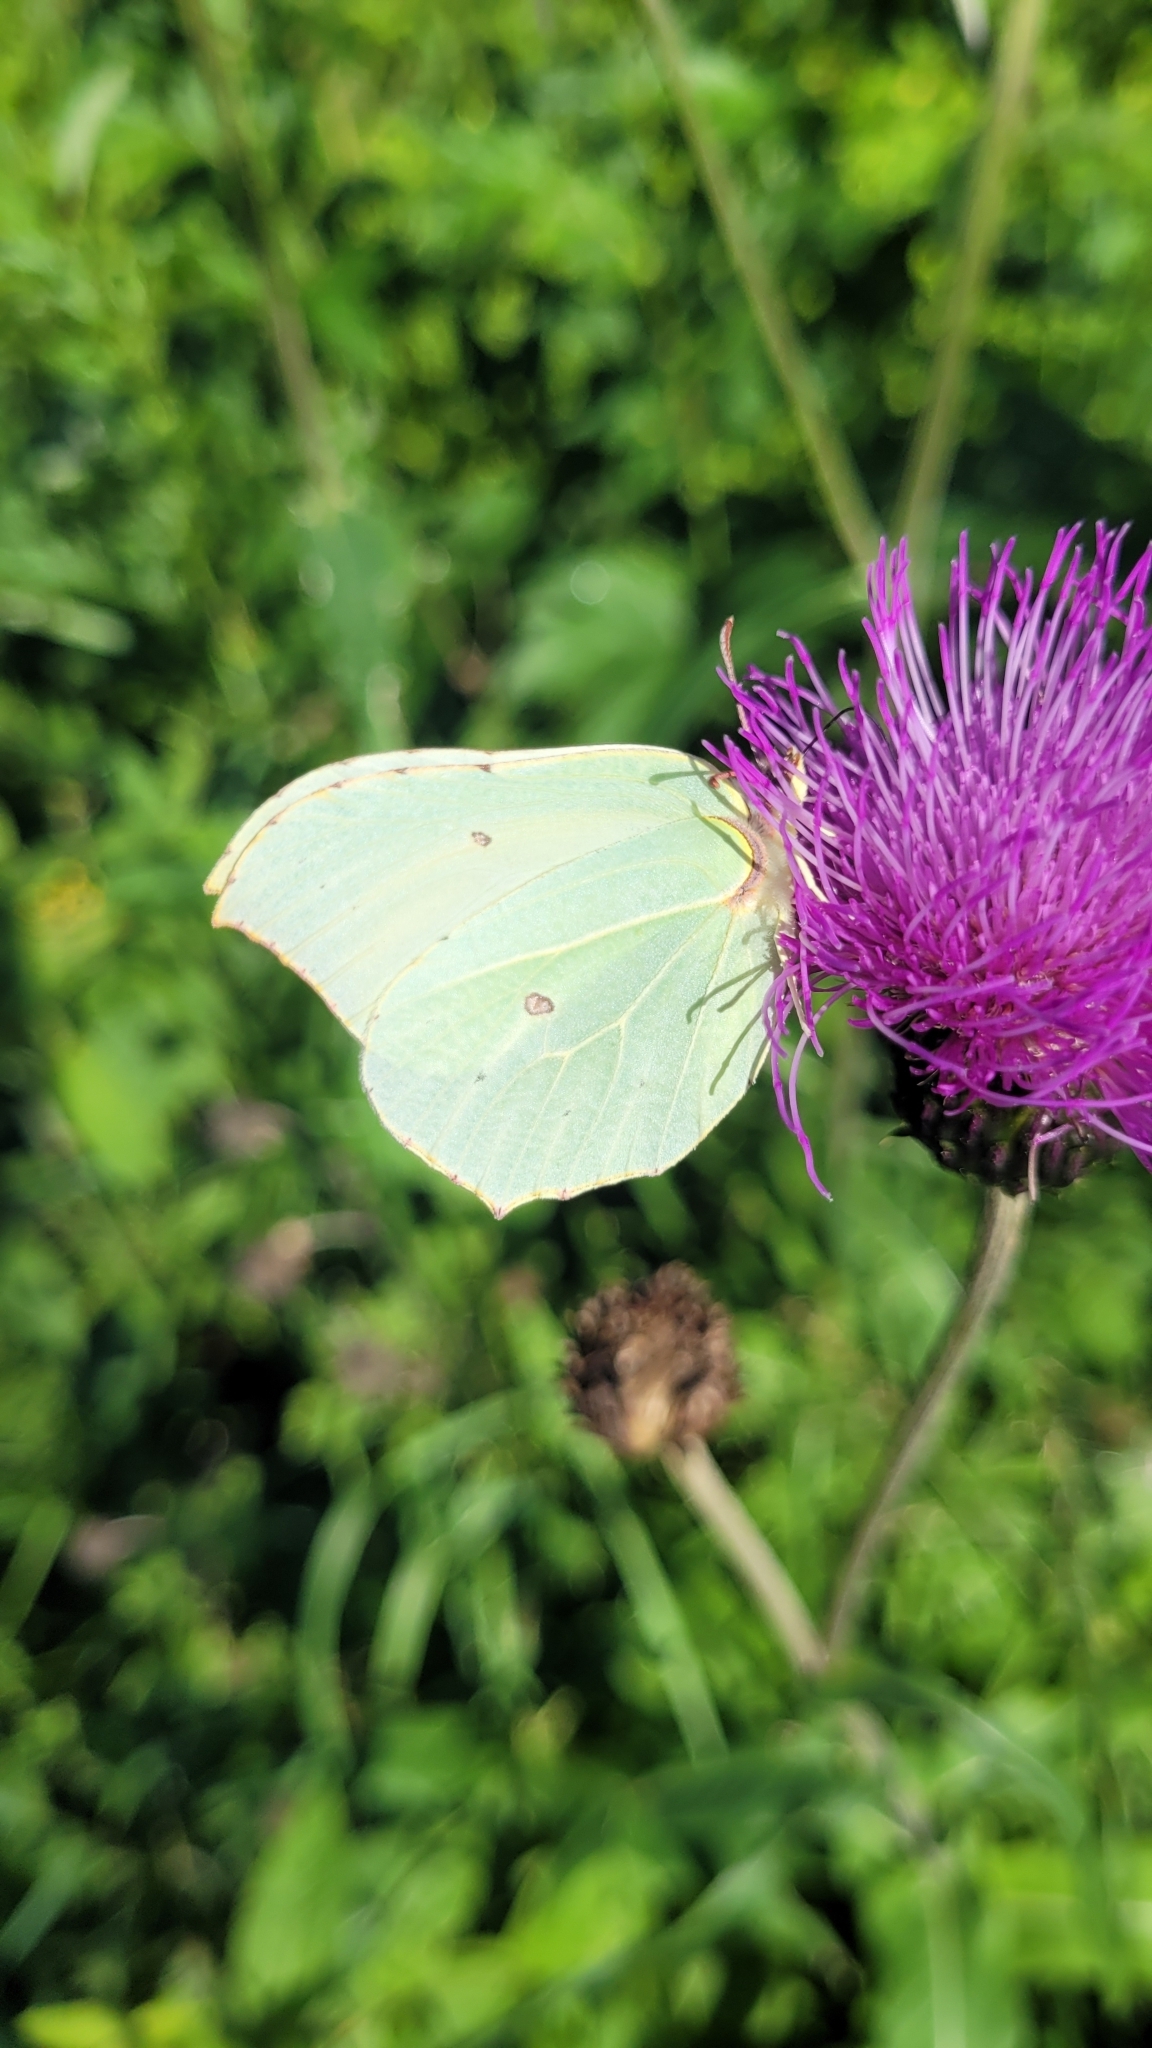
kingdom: Animalia
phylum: Arthropoda
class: Insecta
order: Lepidoptera
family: Pieridae
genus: Gonepteryx
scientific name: Gonepteryx rhamni
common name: Brimstone
